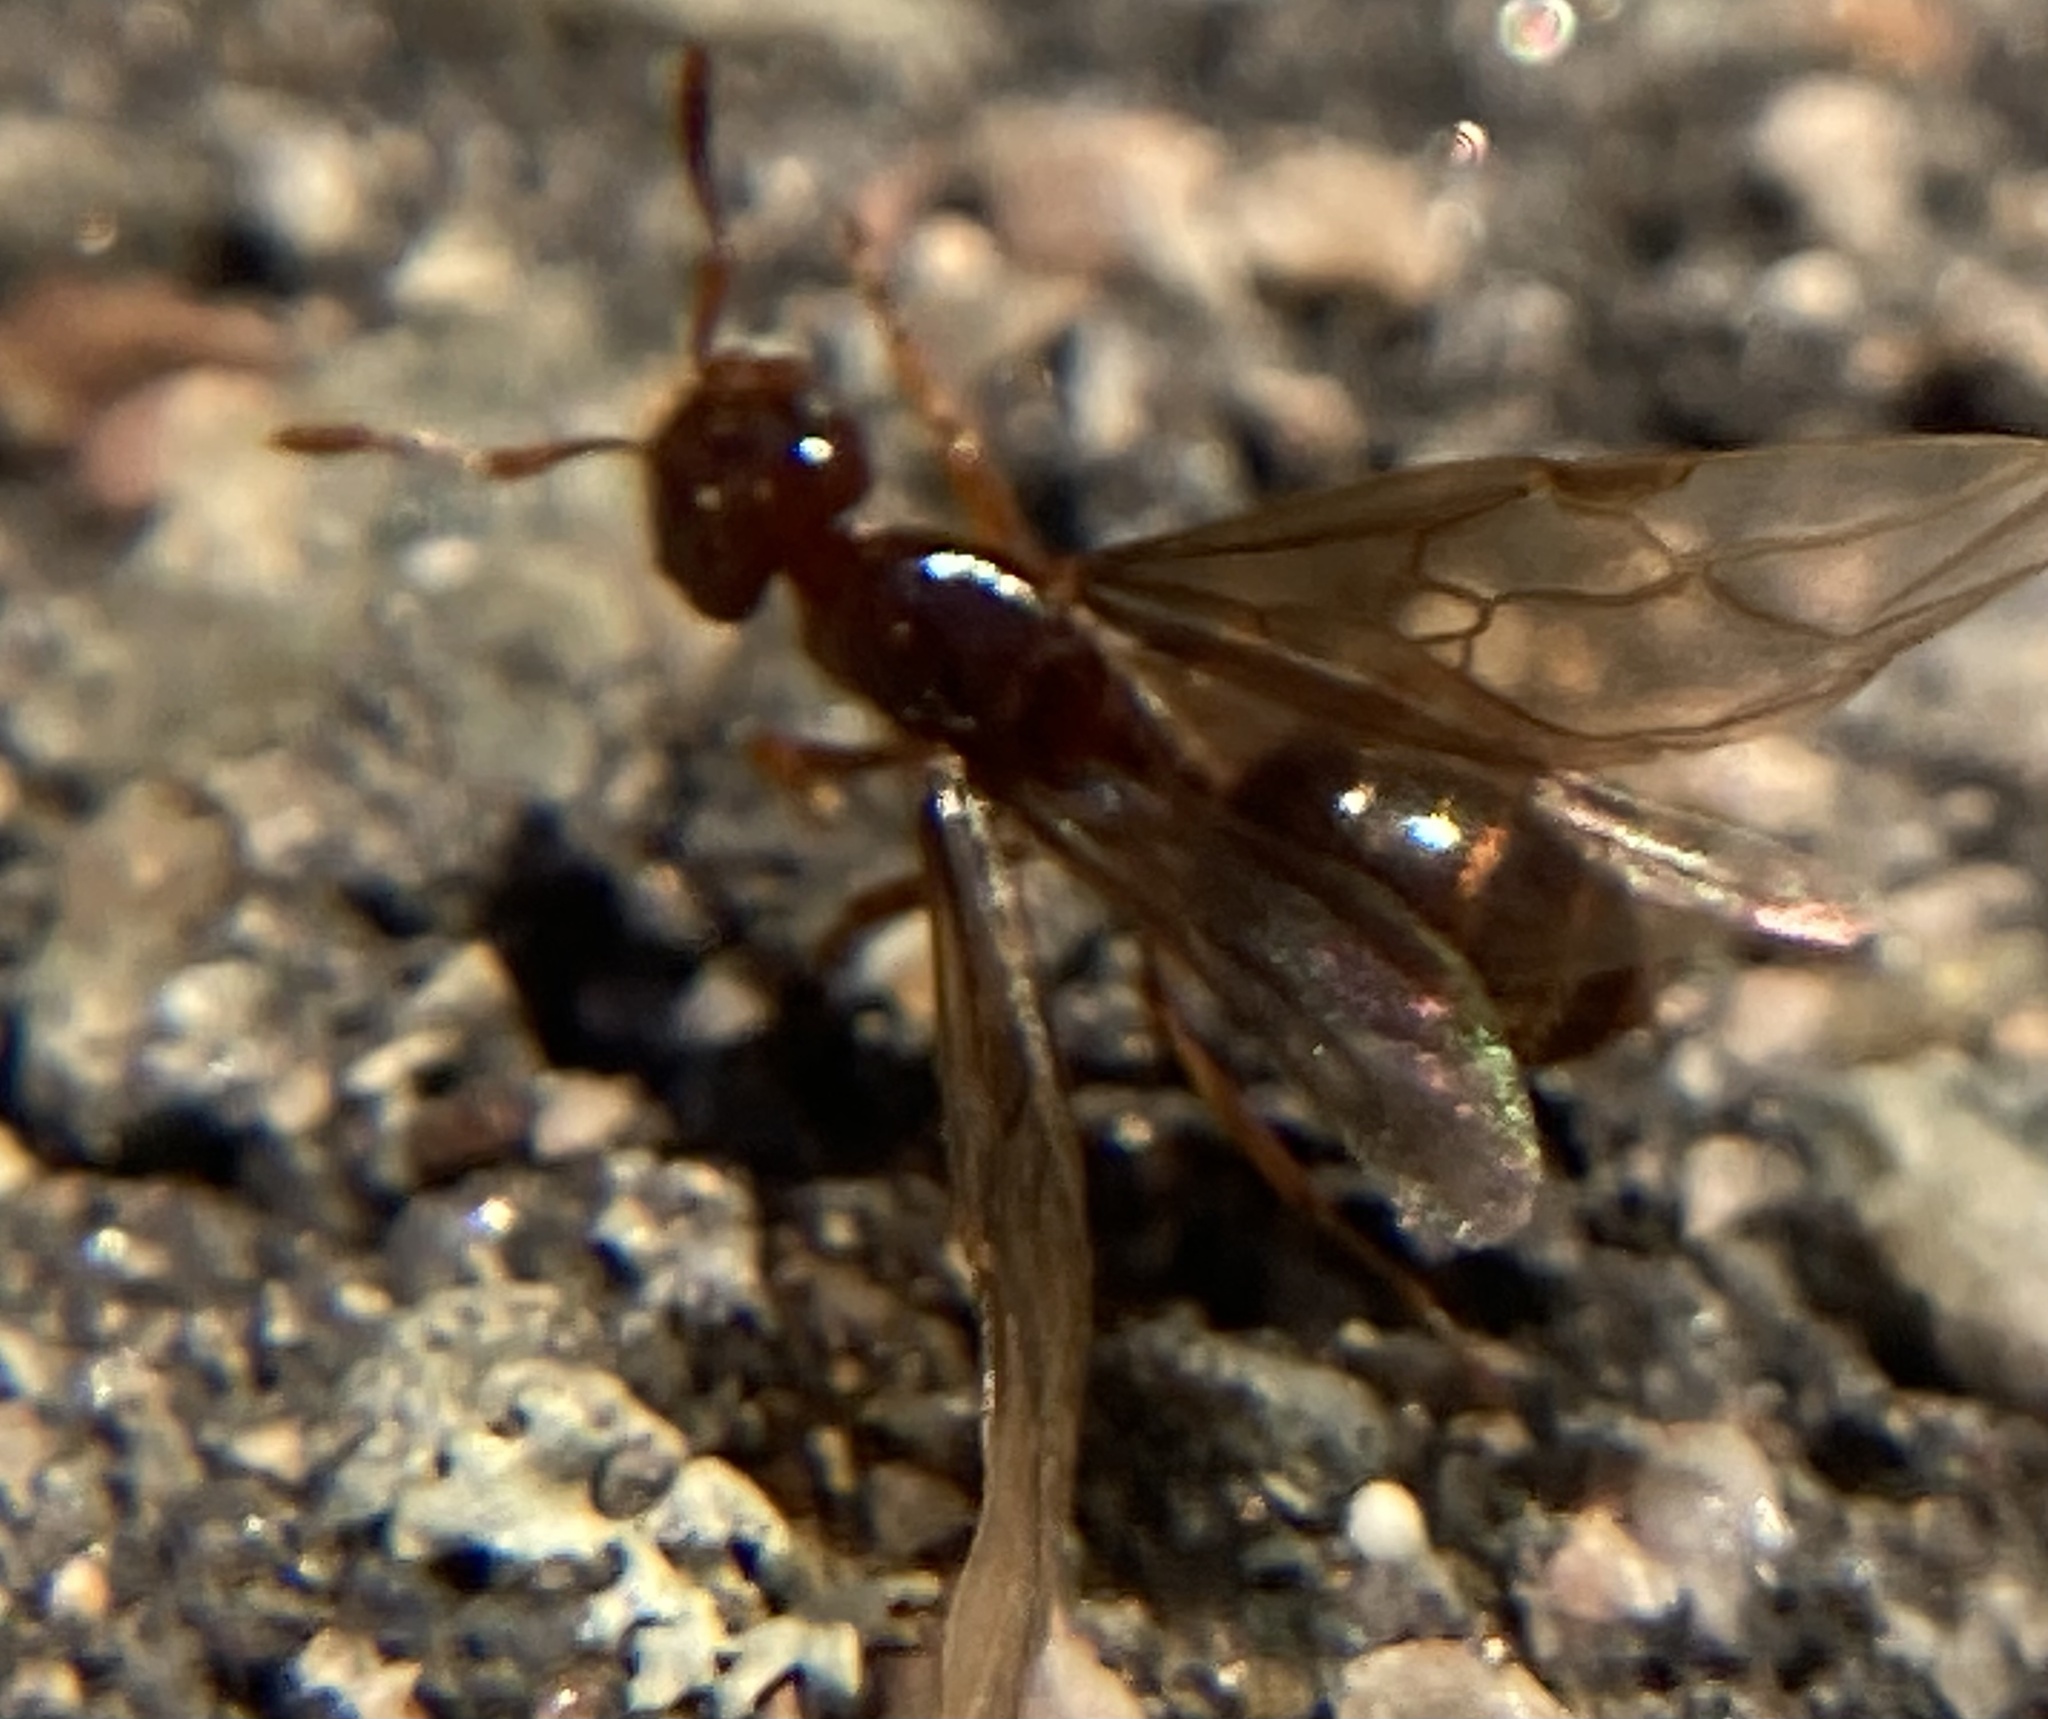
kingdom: Animalia
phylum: Arthropoda
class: Insecta
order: Hymenoptera
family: Formicidae
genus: Lasius
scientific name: Lasius claviger
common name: Common citronella ant
